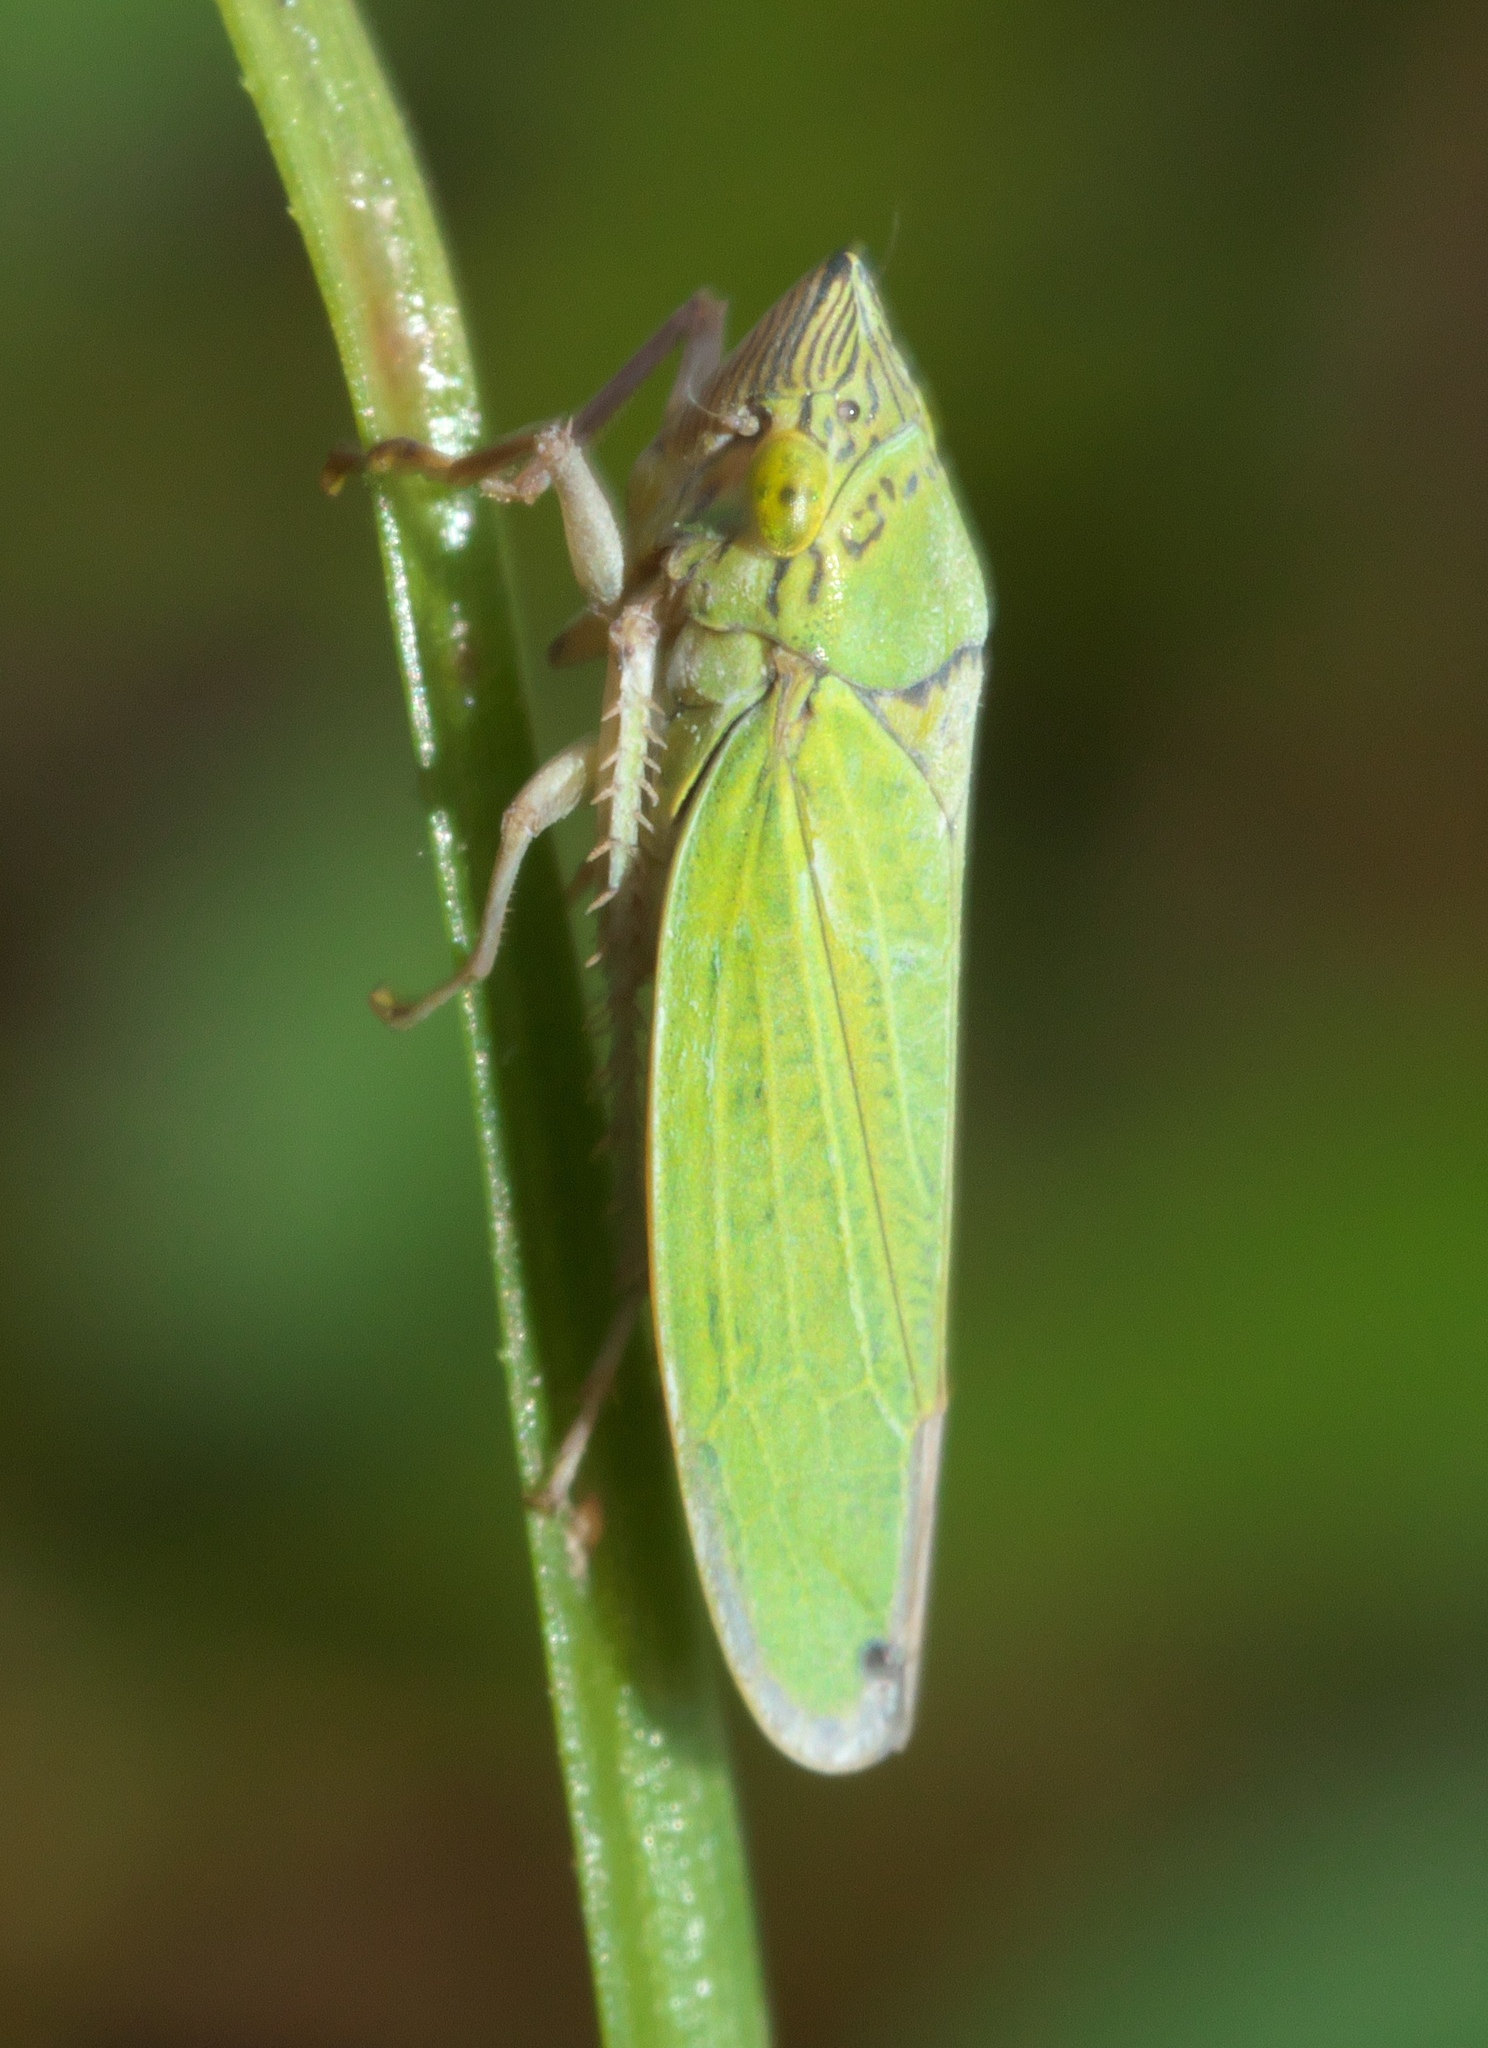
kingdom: Animalia
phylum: Arthropoda
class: Insecta
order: Hemiptera
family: Cicadellidae
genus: Draeculacephala
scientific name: Draeculacephala inscripta
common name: Leafhopper
